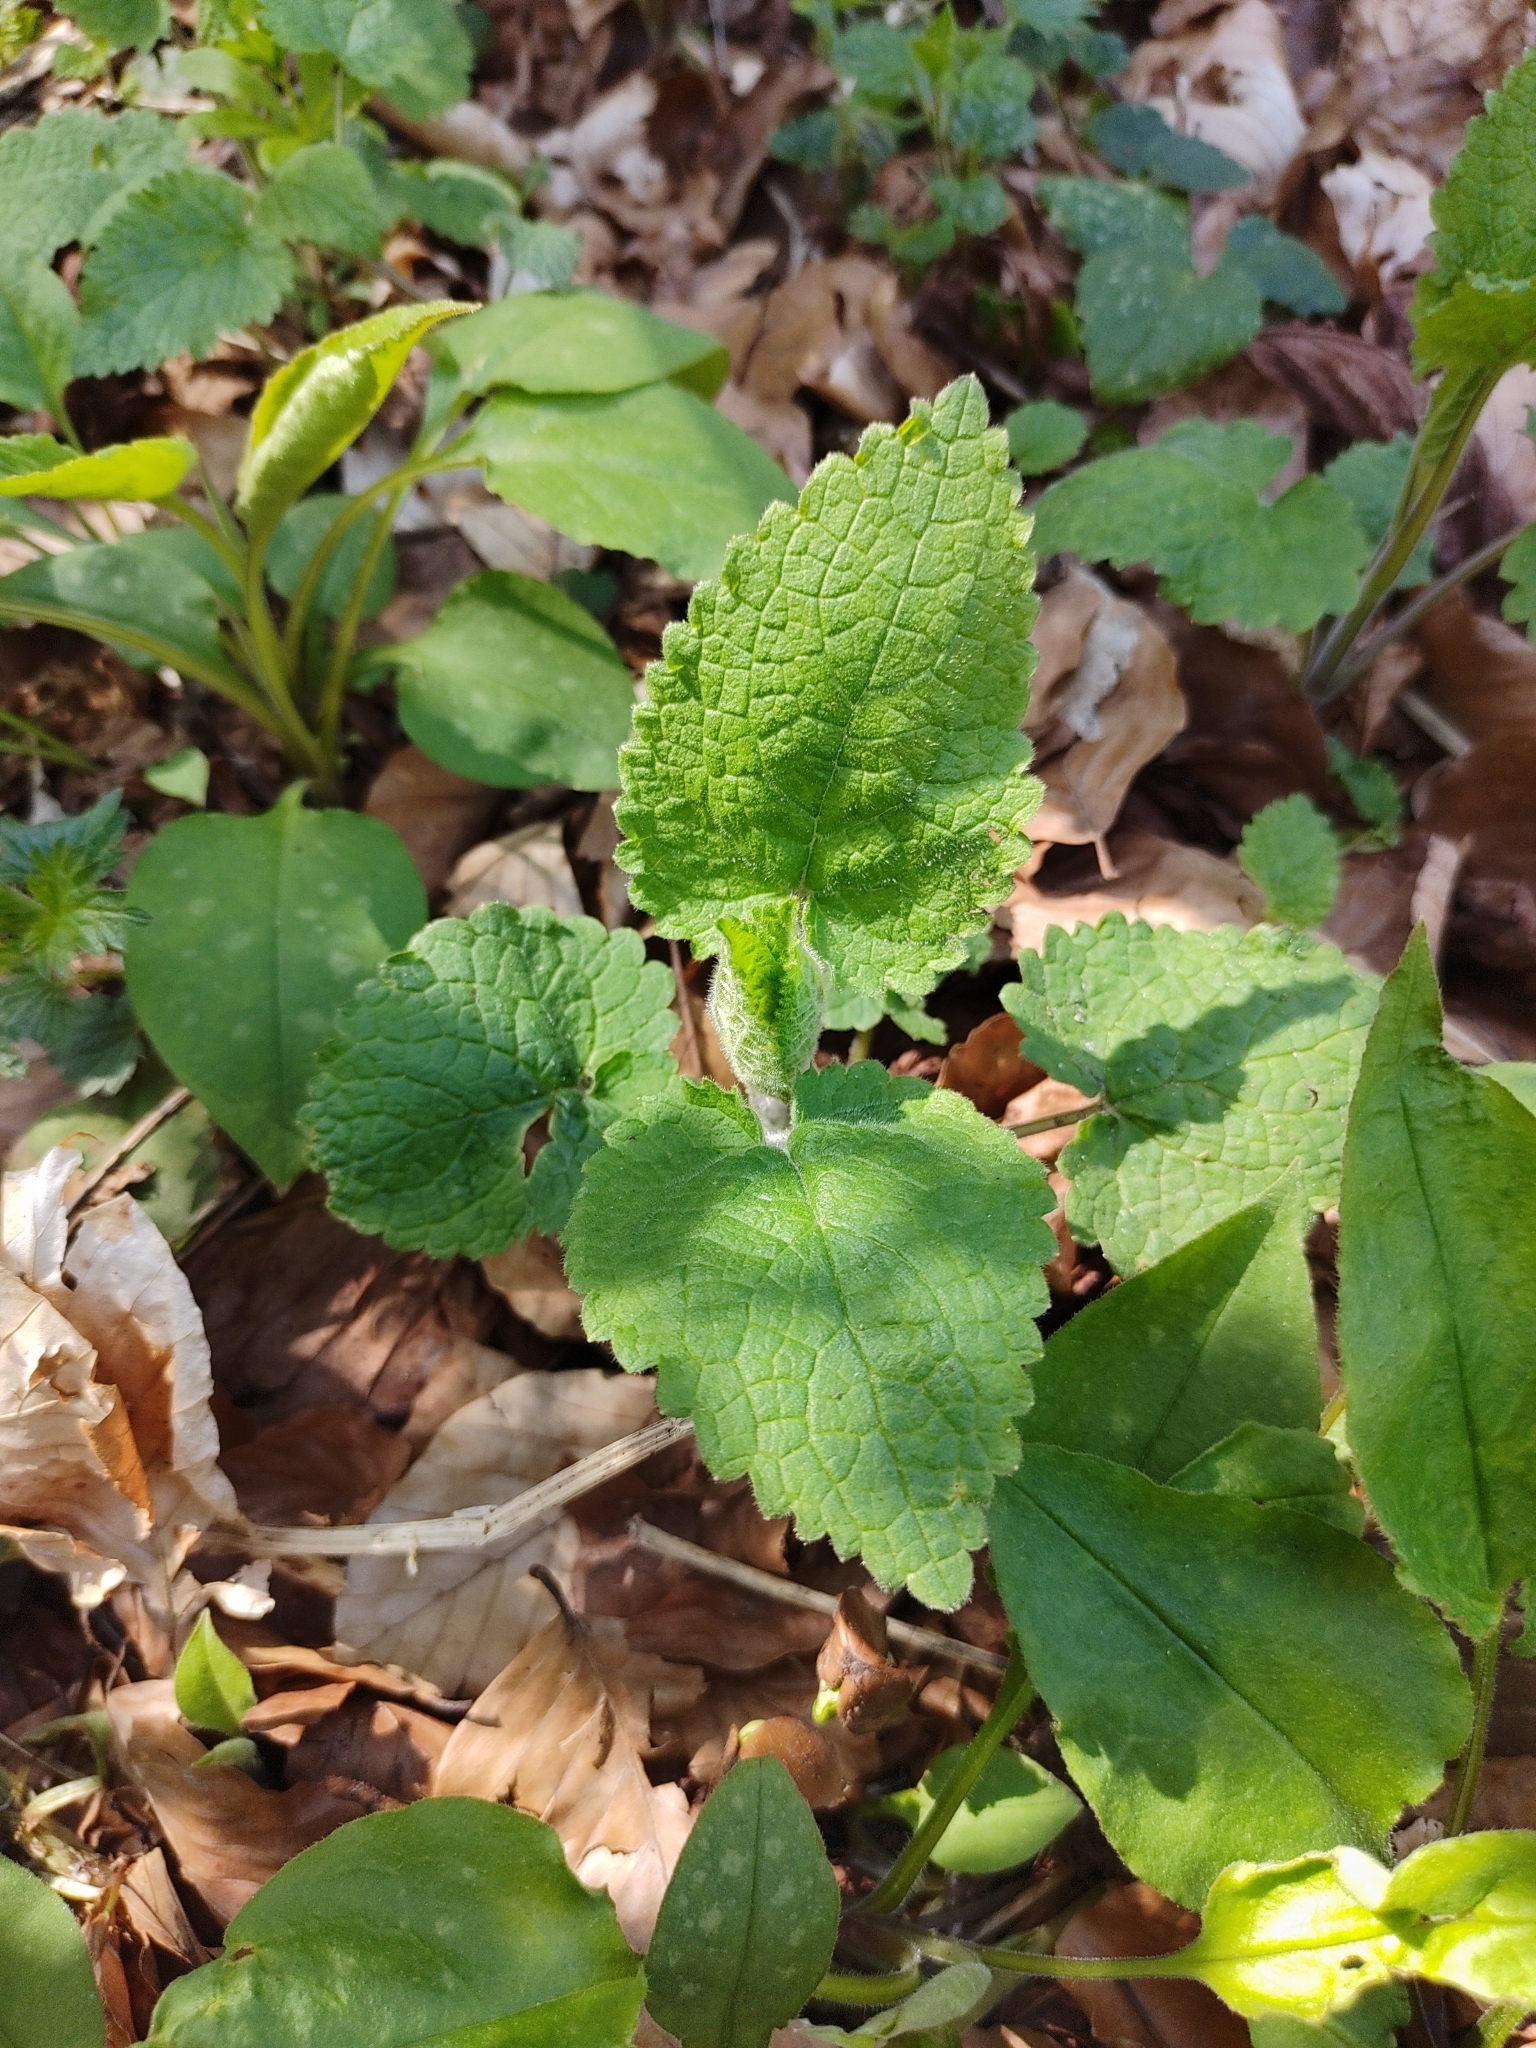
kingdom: Plantae
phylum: Tracheophyta
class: Magnoliopsida
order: Lamiales
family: Lamiaceae
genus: Stachys
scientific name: Stachys sylvatica
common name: Hedge woundwort
